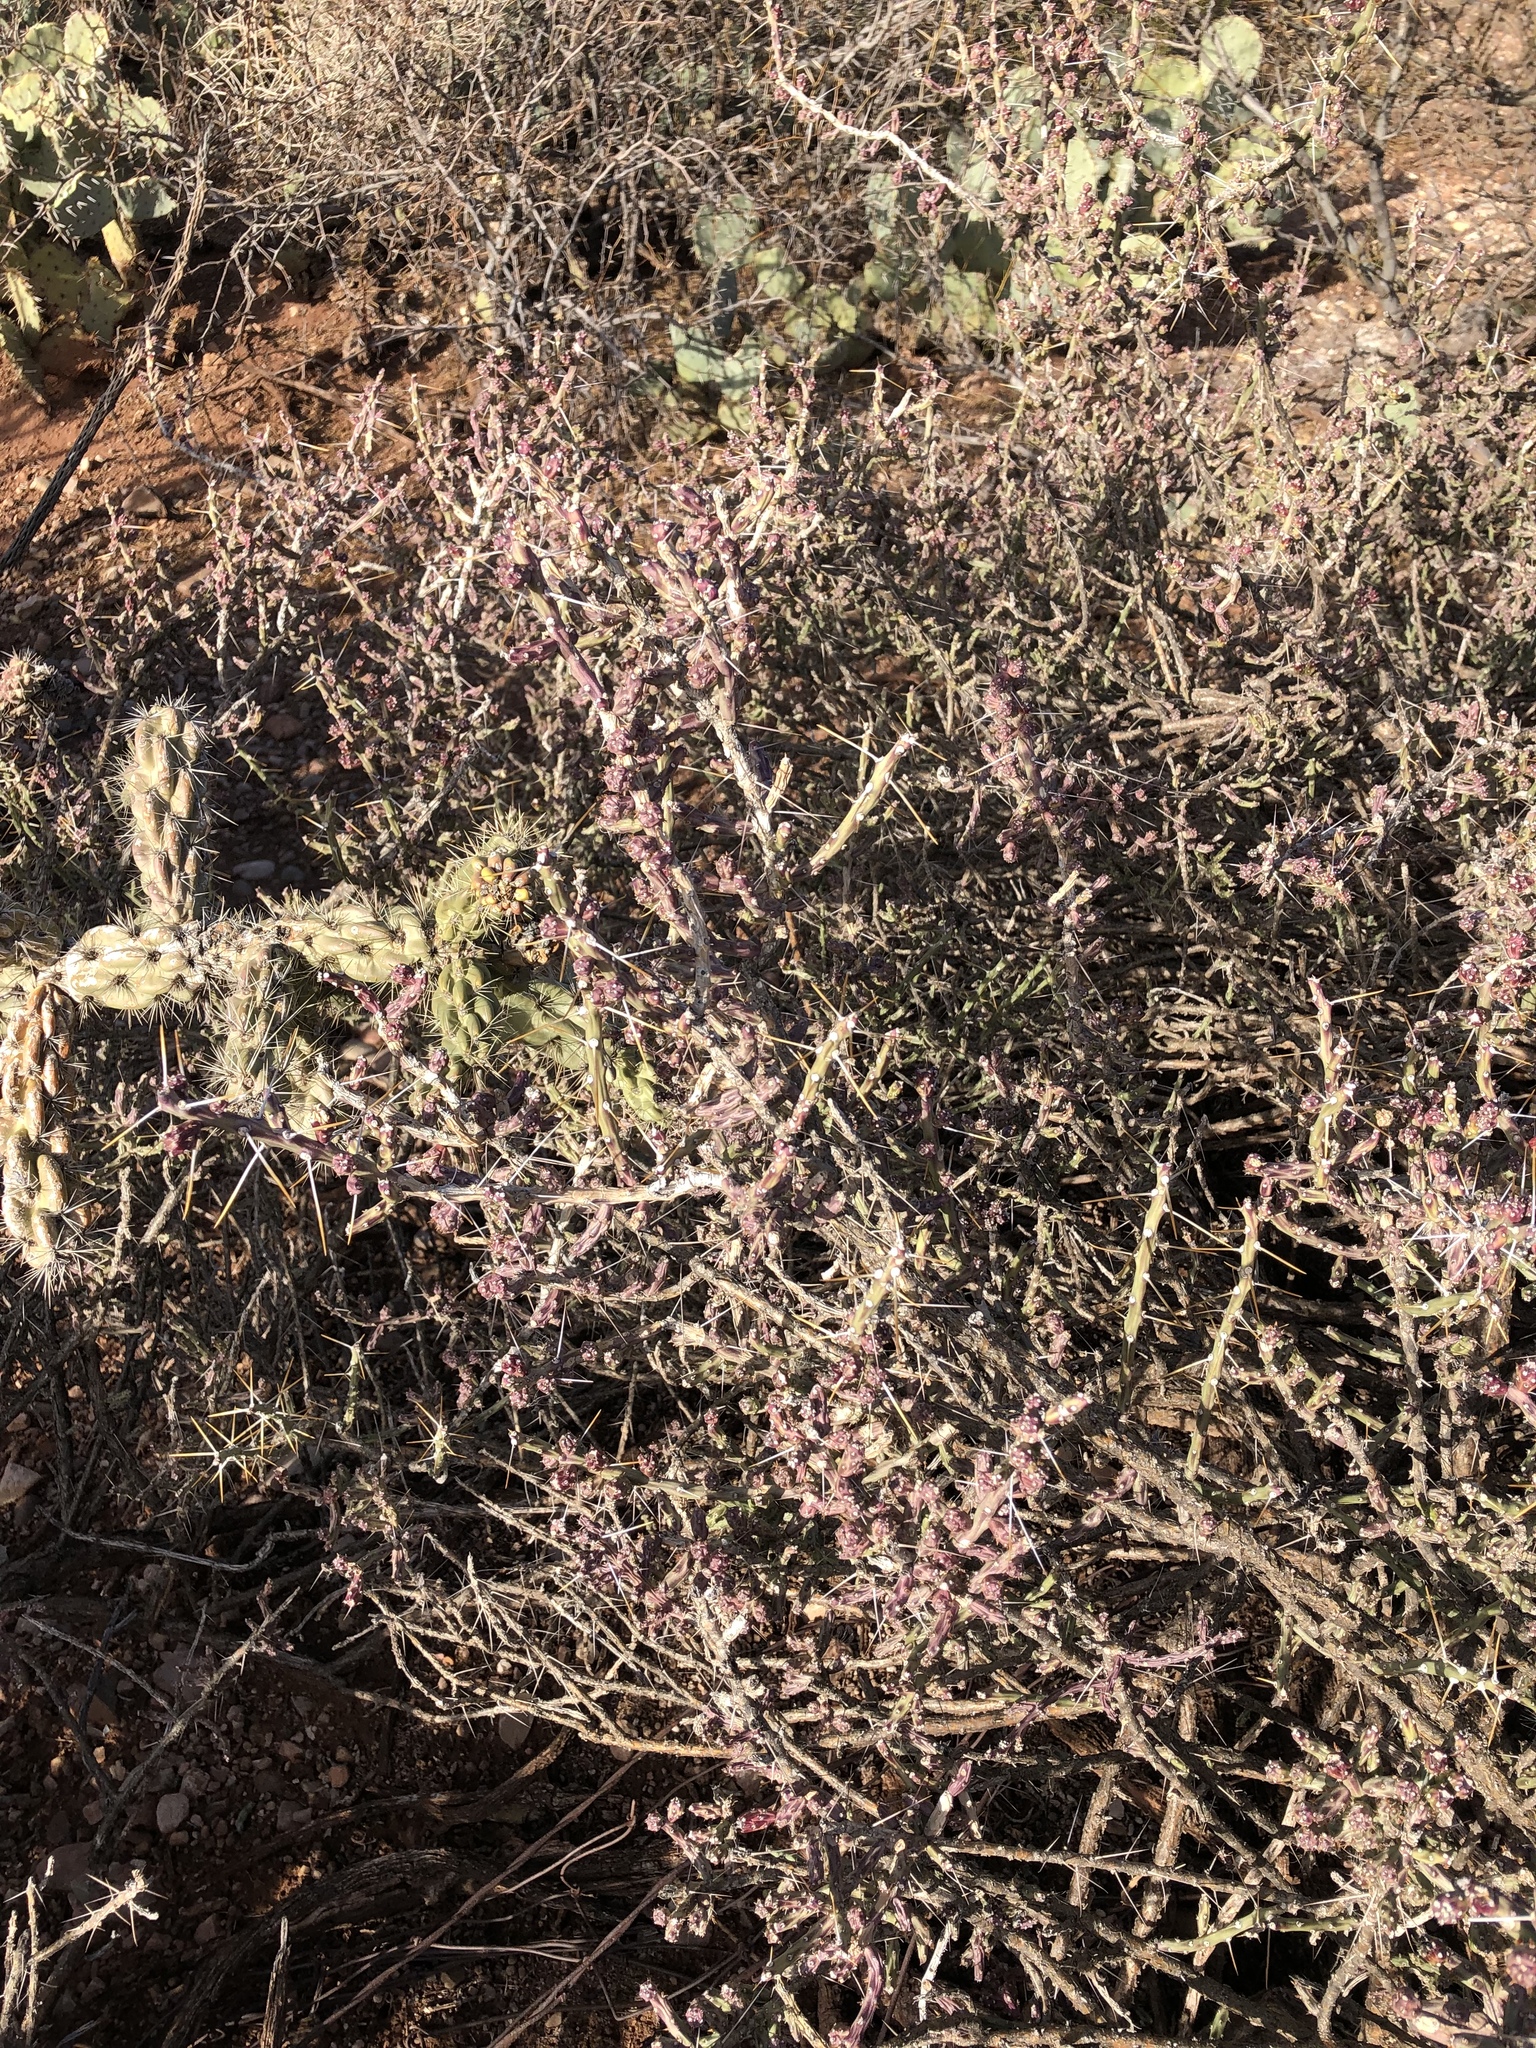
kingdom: Plantae
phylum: Tracheophyta
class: Magnoliopsida
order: Caryophyllales
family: Cactaceae
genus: Cylindropuntia
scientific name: Cylindropuntia leptocaulis
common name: Christmas cactus
